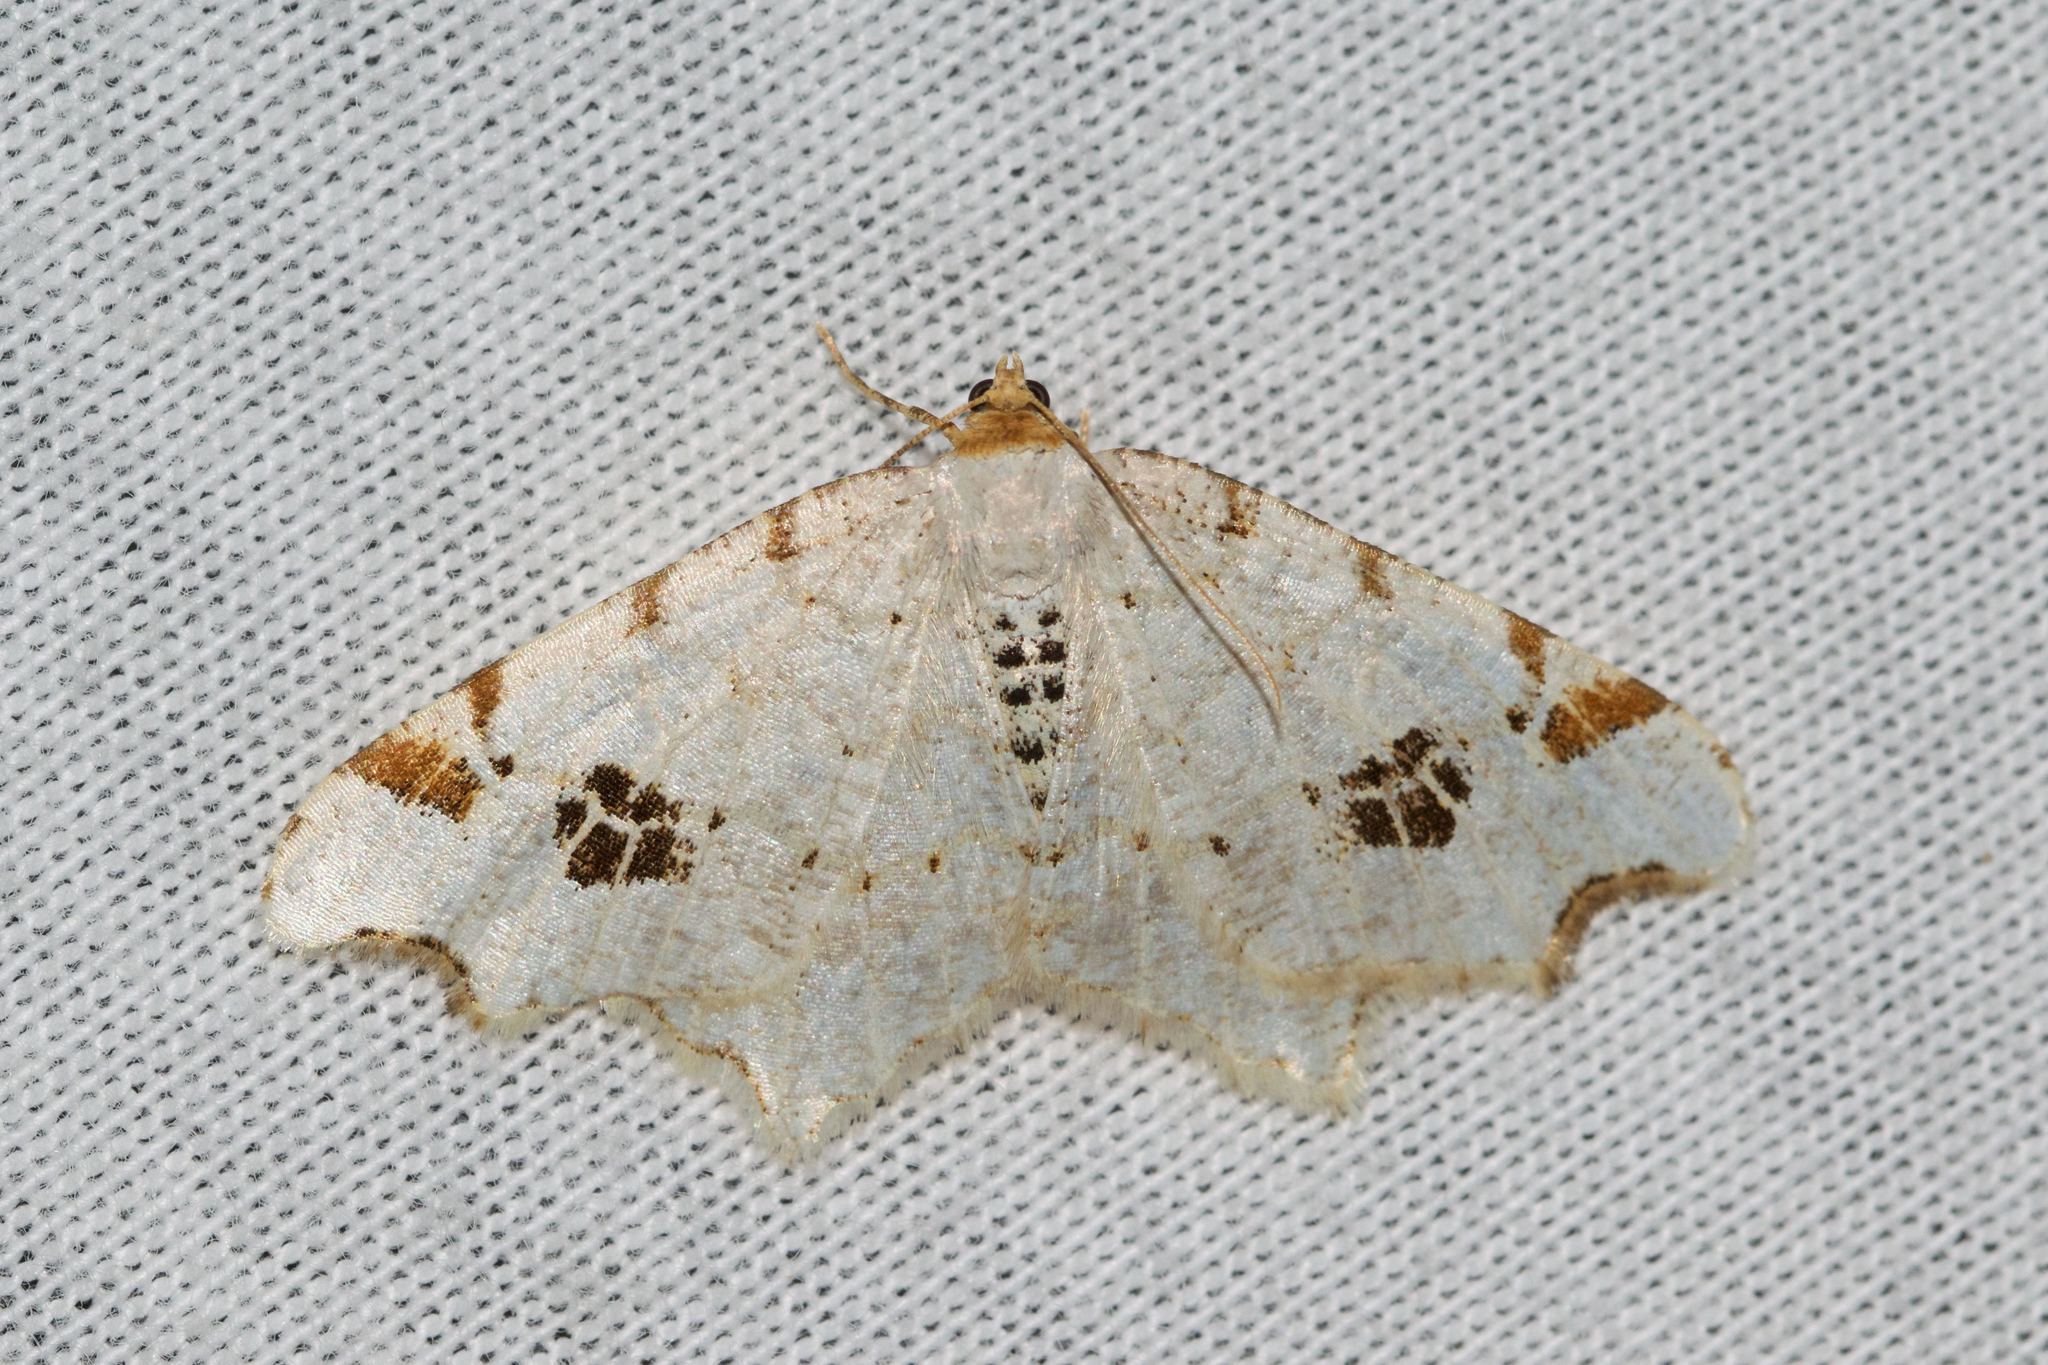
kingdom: Animalia
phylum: Arthropoda
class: Insecta
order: Lepidoptera
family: Geometridae
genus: Macaria
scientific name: Macaria ulsterata
